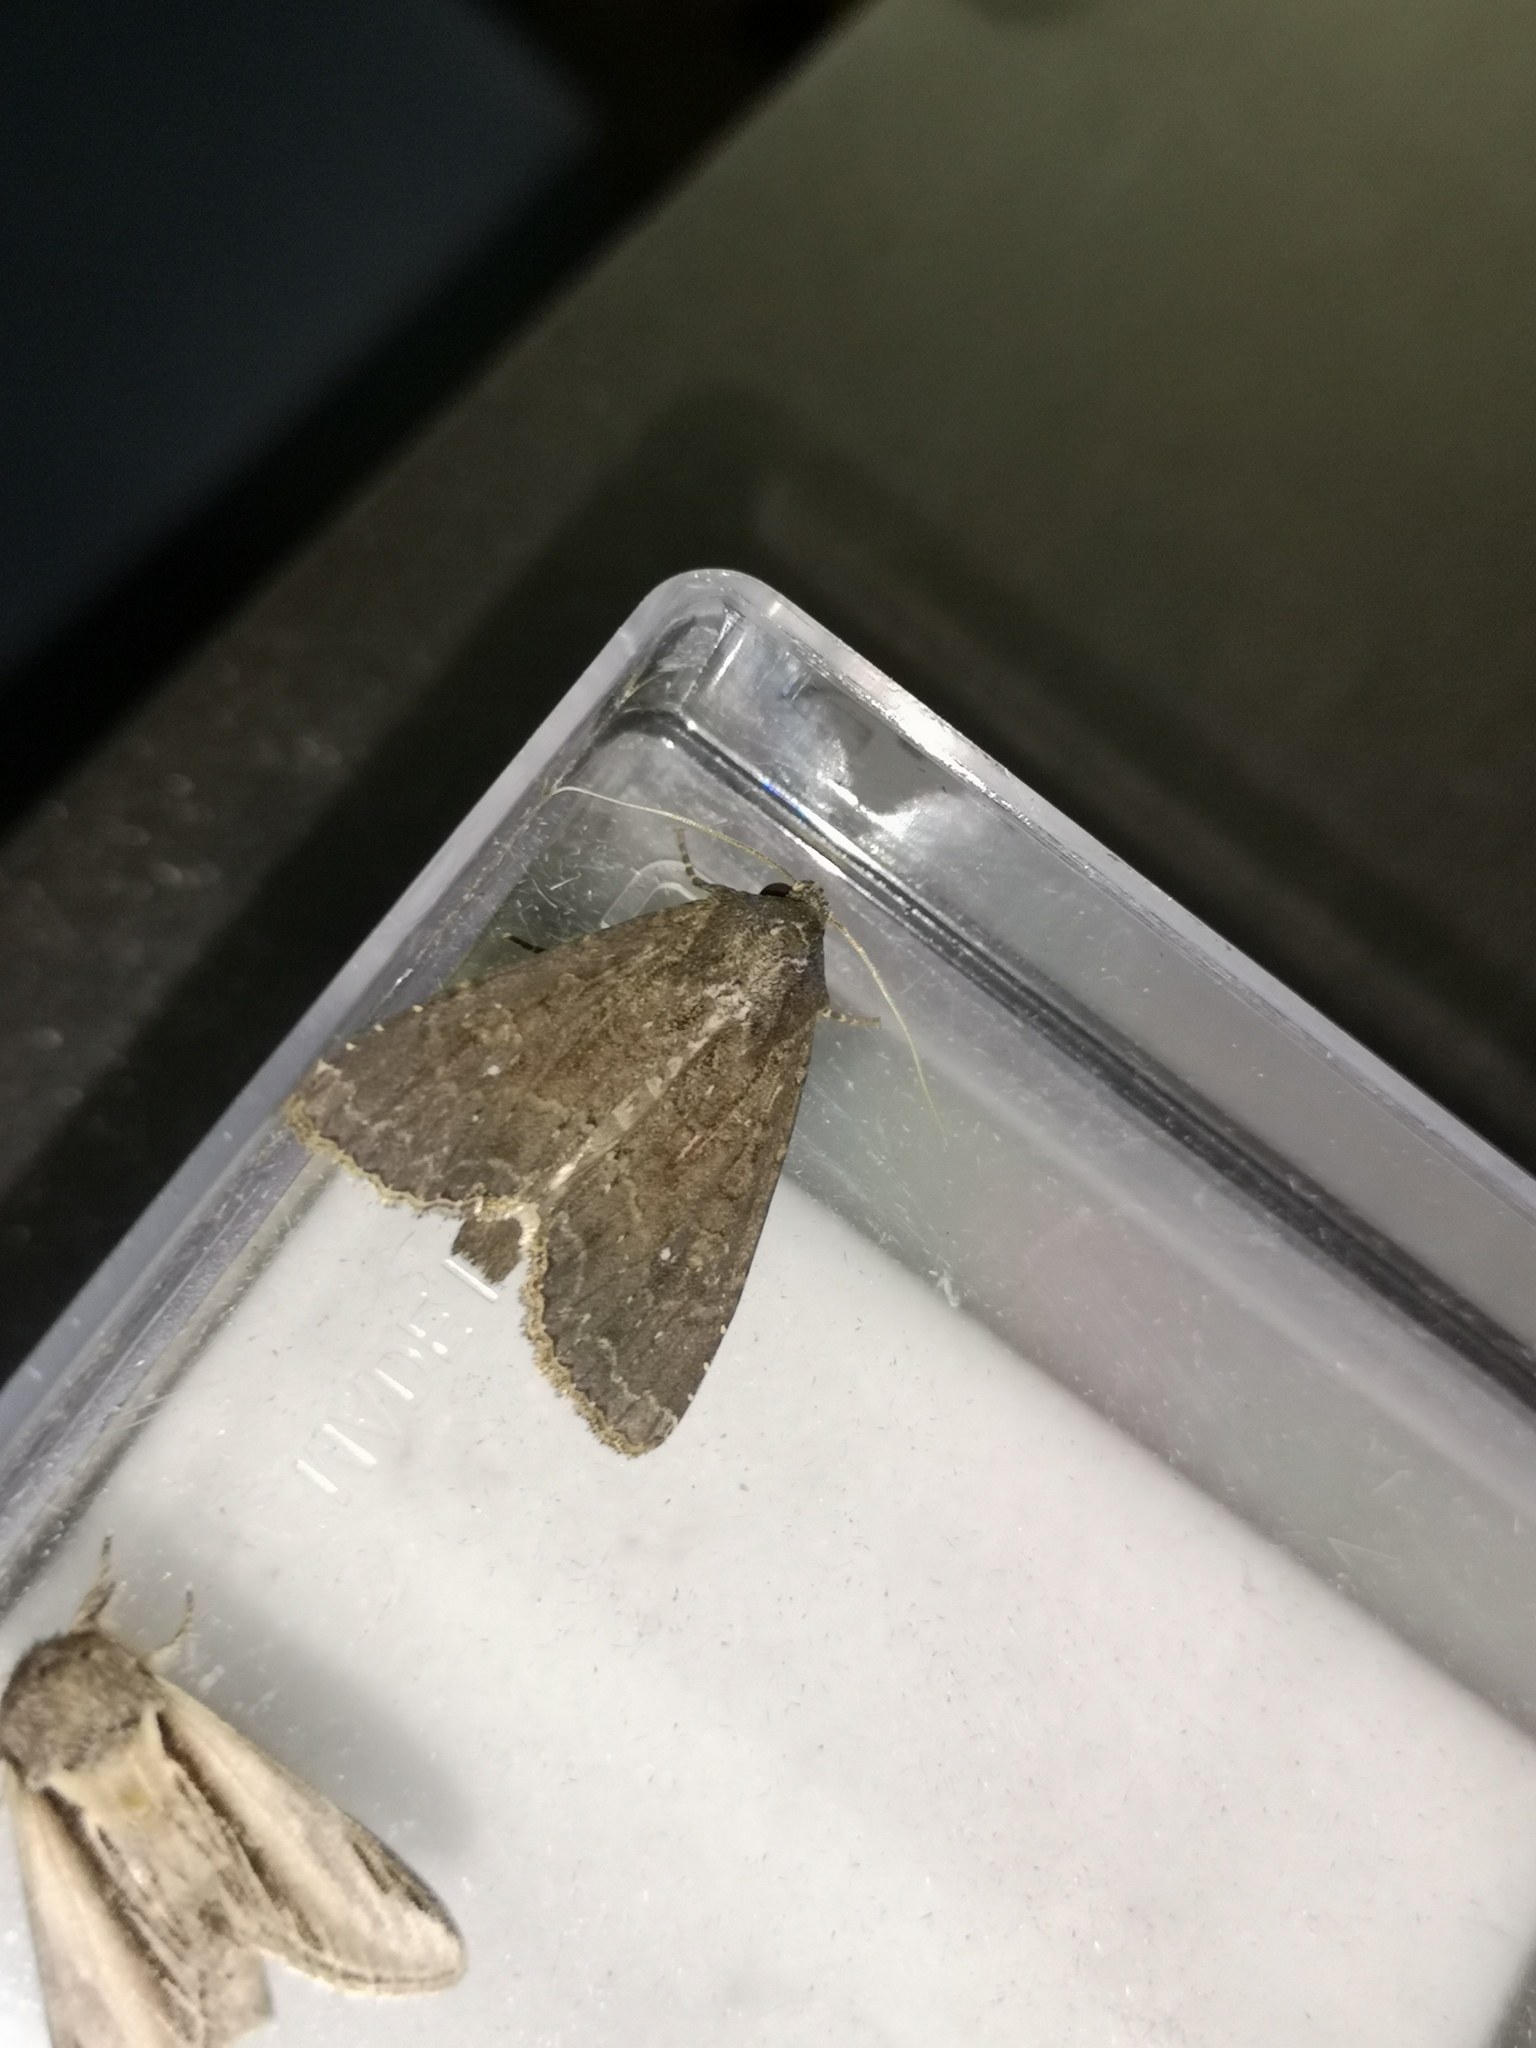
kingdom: Animalia
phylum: Arthropoda
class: Insecta
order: Lepidoptera
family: Noctuidae
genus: Parastichtis
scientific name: Parastichtis suspecta
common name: Suspected
